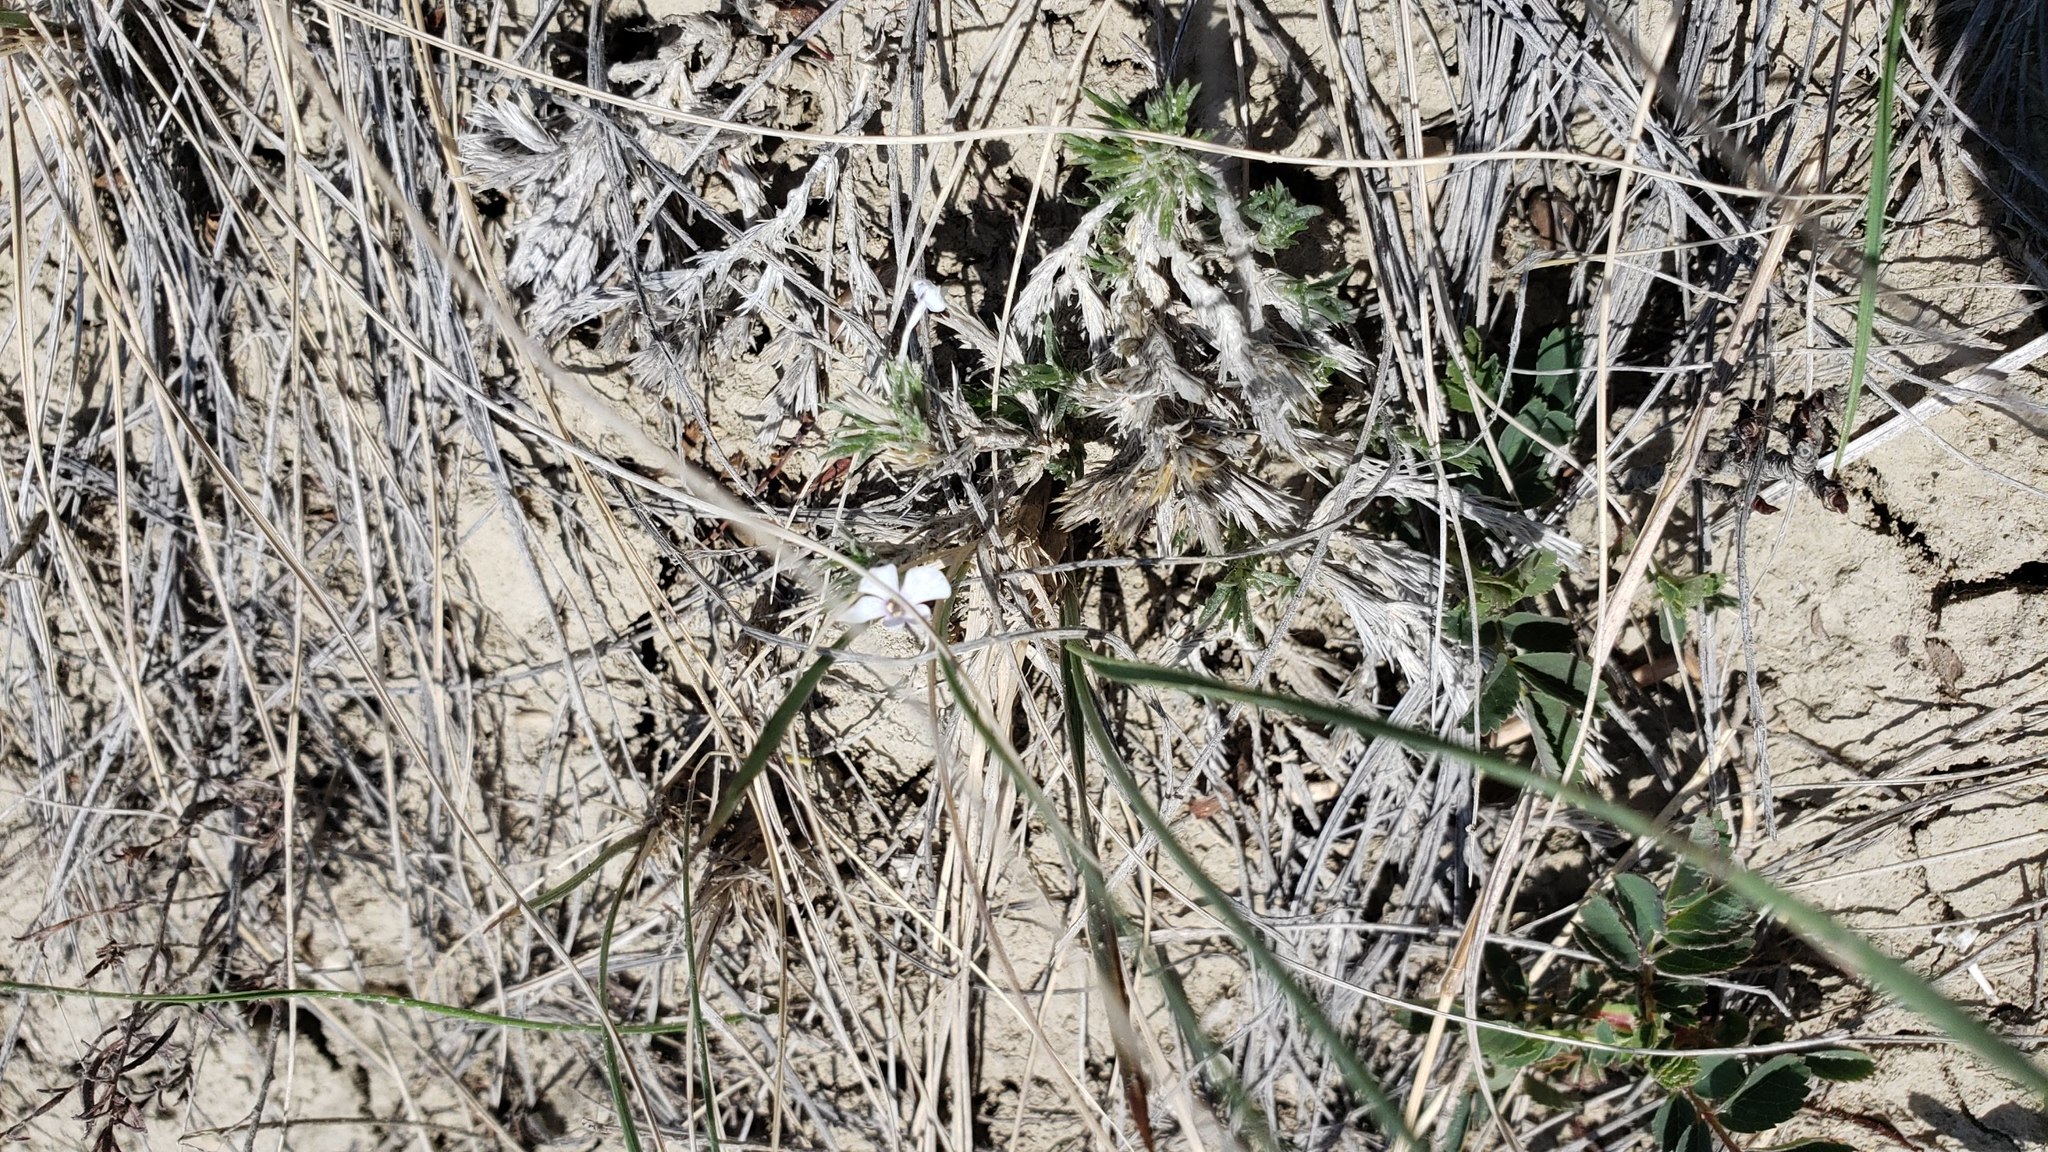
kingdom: Plantae
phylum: Tracheophyta
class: Magnoliopsida
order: Ericales
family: Polemoniaceae
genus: Phlox
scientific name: Phlox hoodii
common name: Moss phlox
